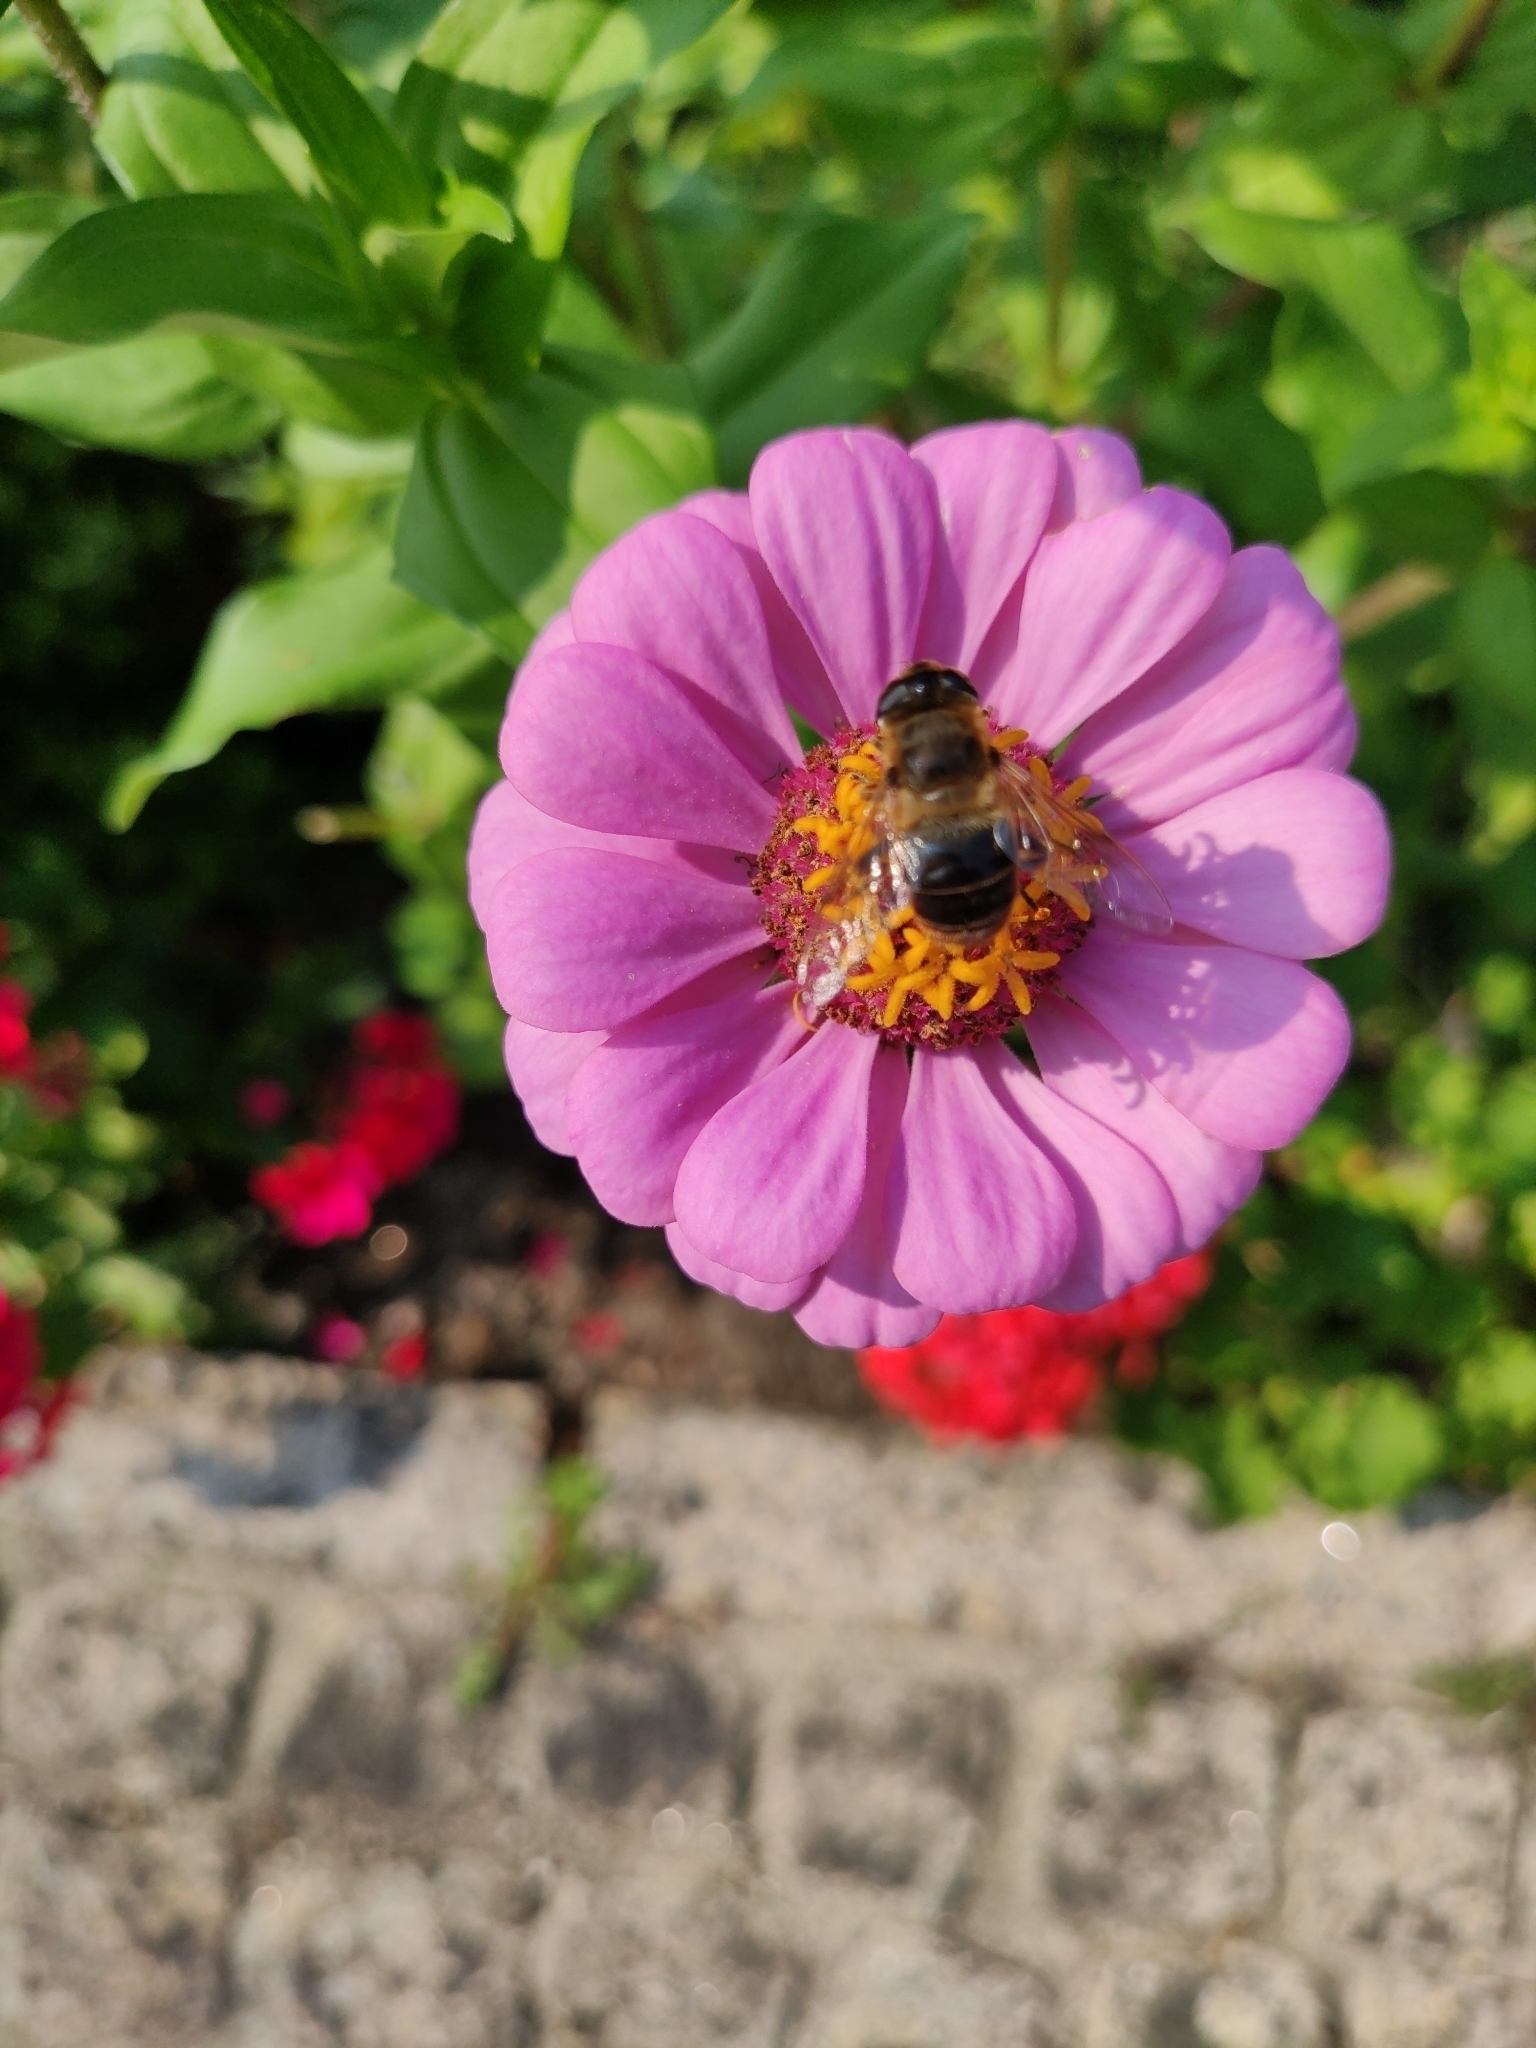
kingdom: Animalia
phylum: Arthropoda
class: Insecta
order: Diptera
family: Syrphidae
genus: Eristalis
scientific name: Eristalis tenax
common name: Drone fly
